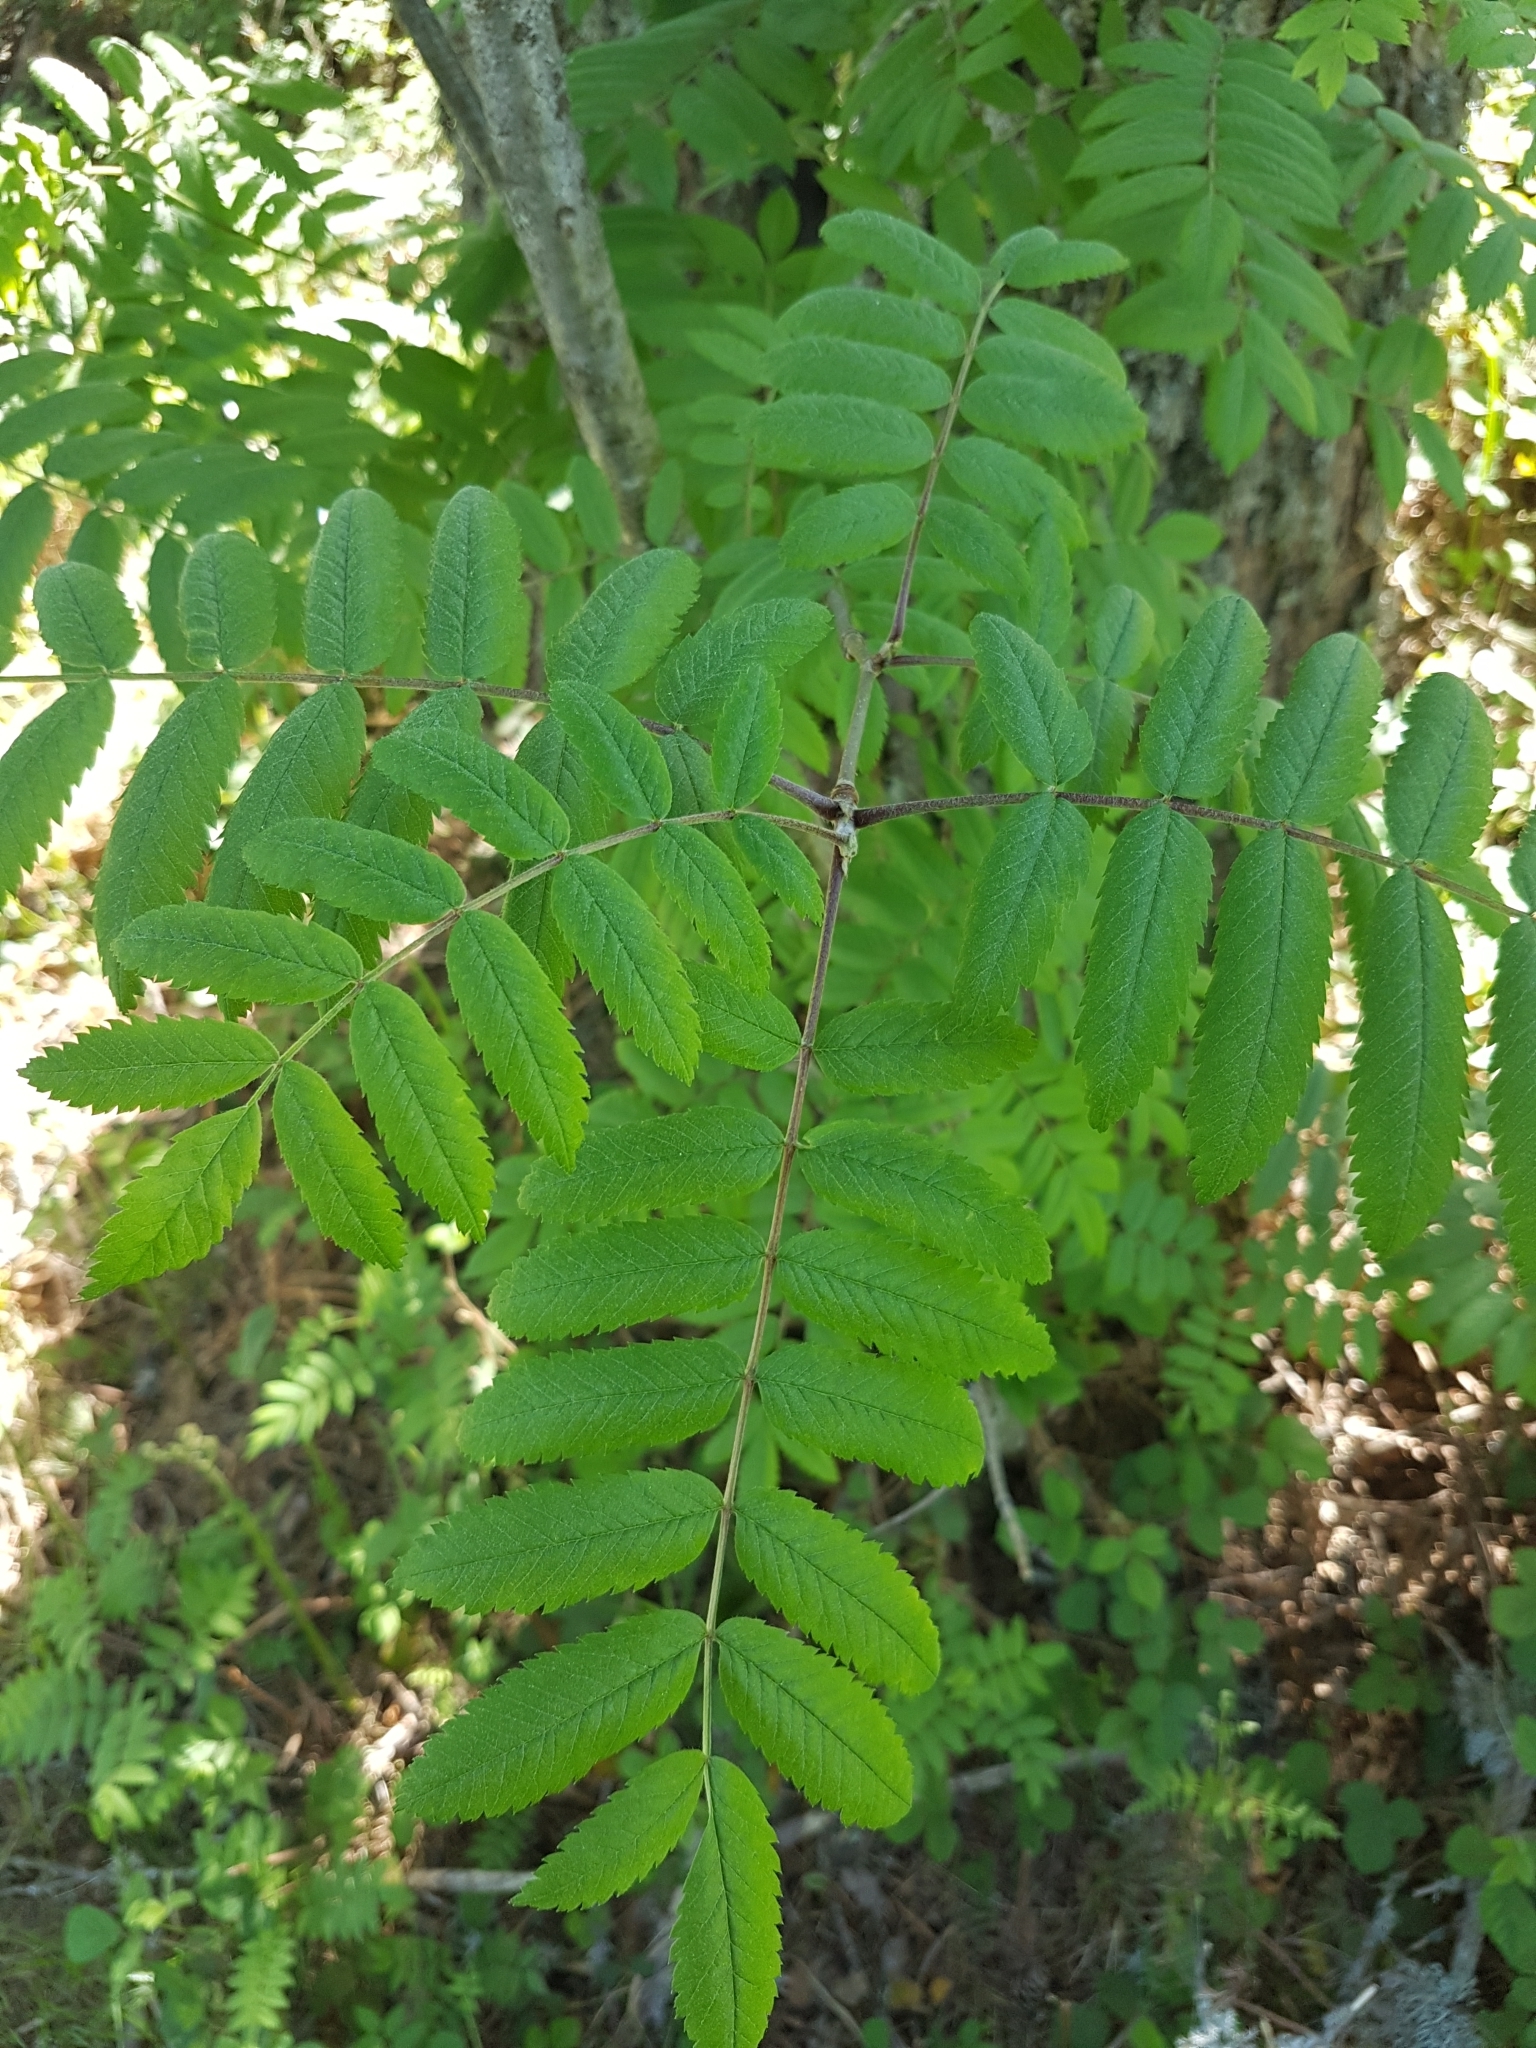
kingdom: Plantae
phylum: Tracheophyta
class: Magnoliopsida
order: Rosales
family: Rosaceae
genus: Sorbus
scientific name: Sorbus aucuparia
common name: Rowan
